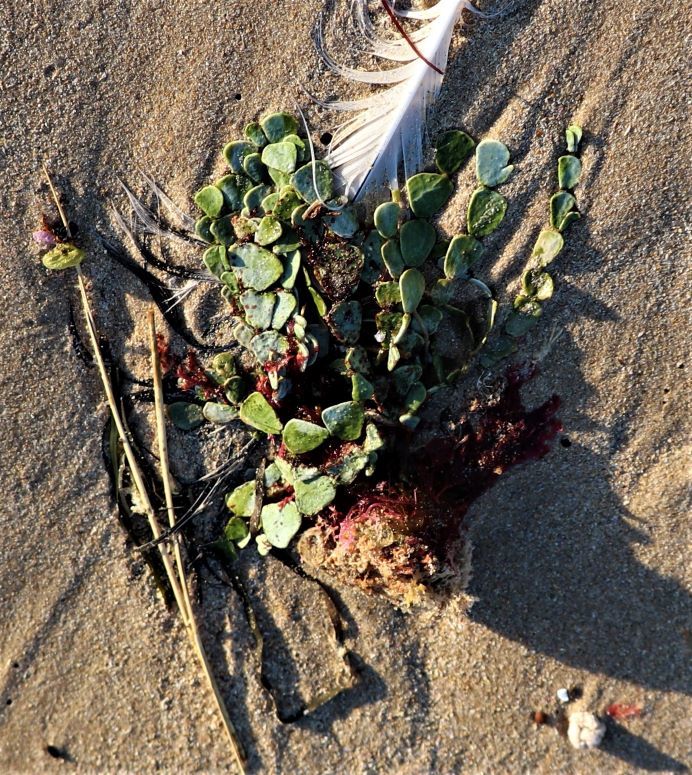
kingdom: Plantae
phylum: Chlorophyta
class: Ulvophyceae
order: Bryopsidales
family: Halimedaceae
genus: Halimeda
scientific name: Halimeda cuneata
